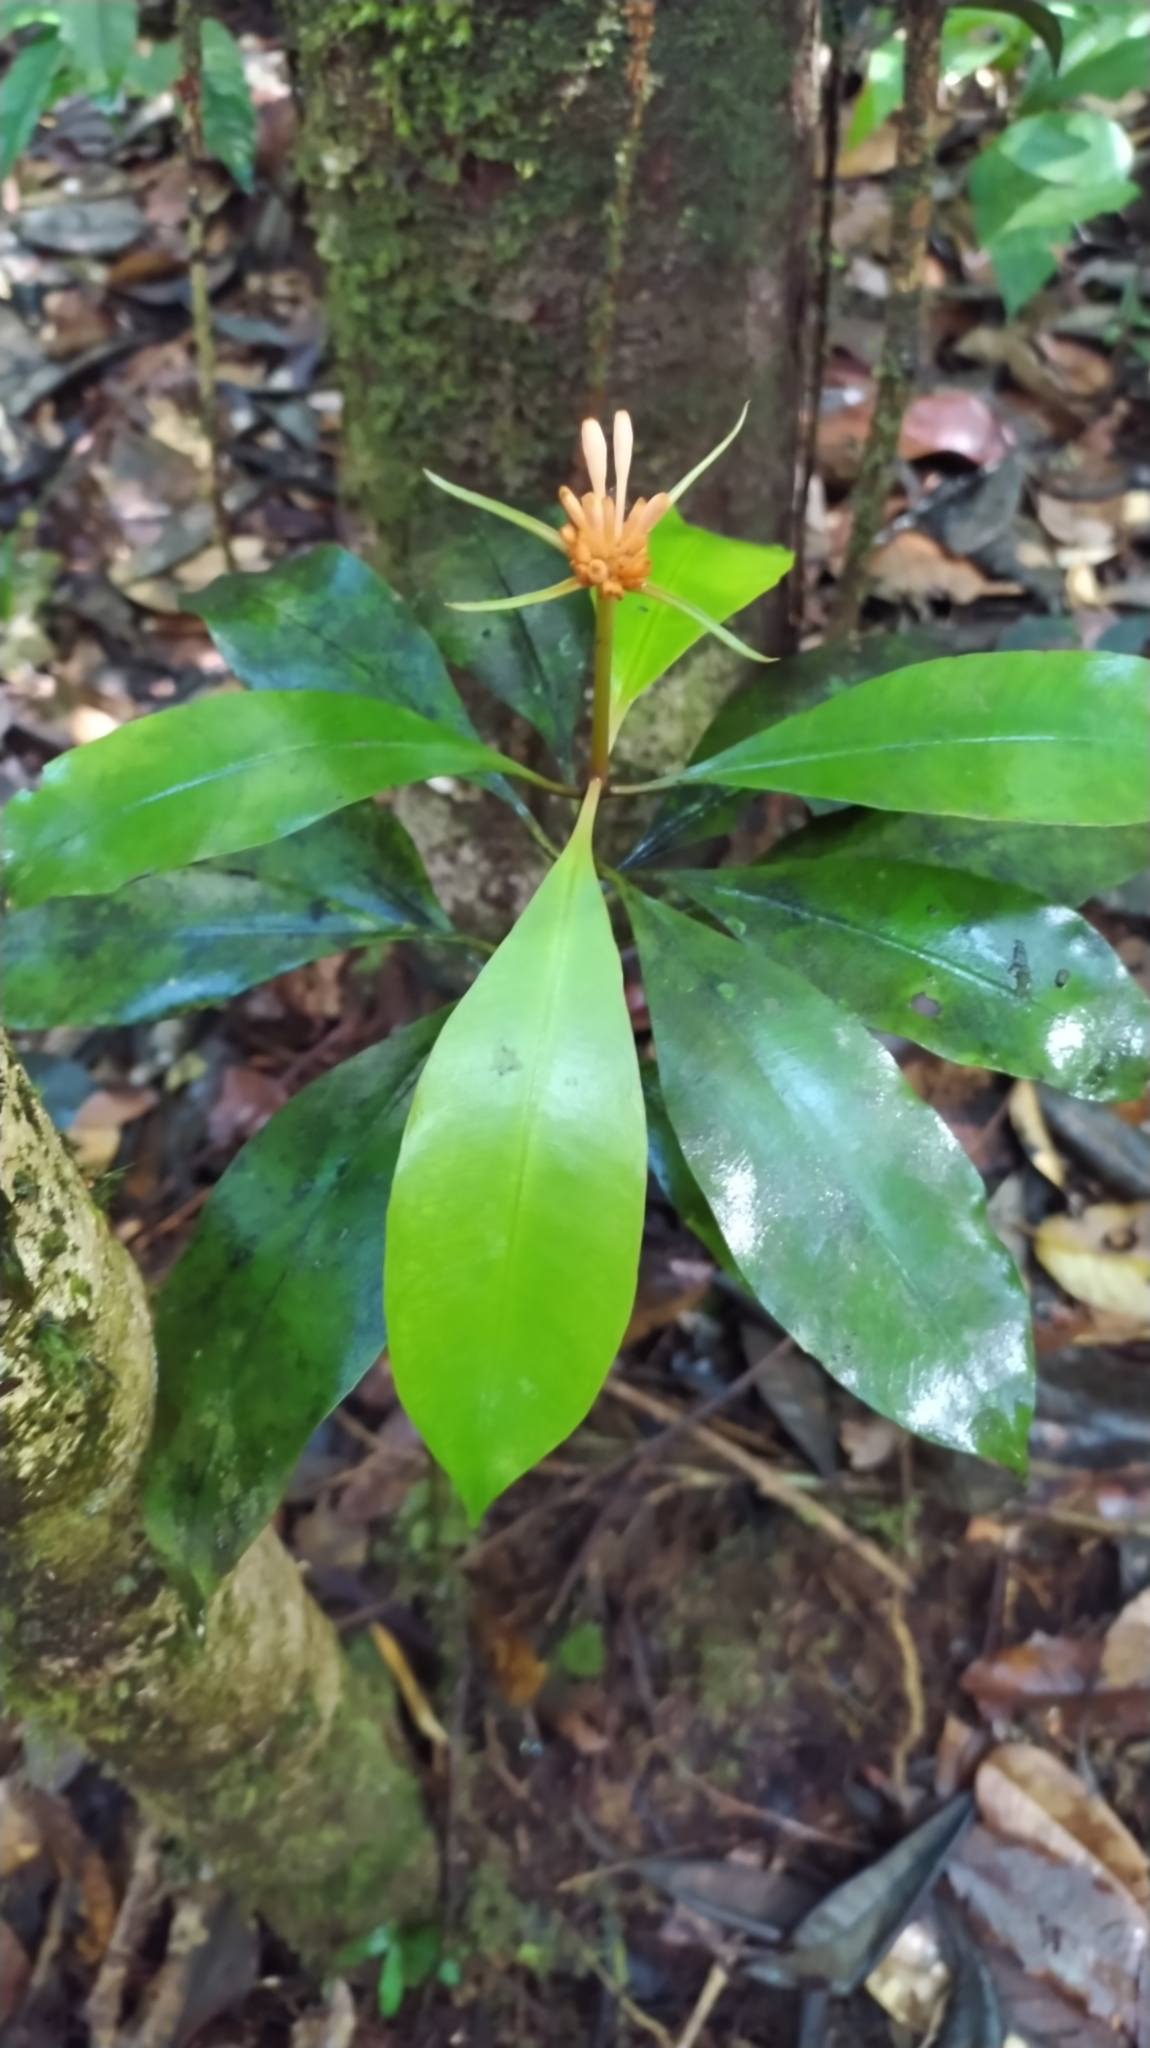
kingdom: Plantae
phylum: Tracheophyta
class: Magnoliopsida
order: Gentianales
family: Rubiaceae
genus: Carapichea
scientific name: Carapichea ligularis
